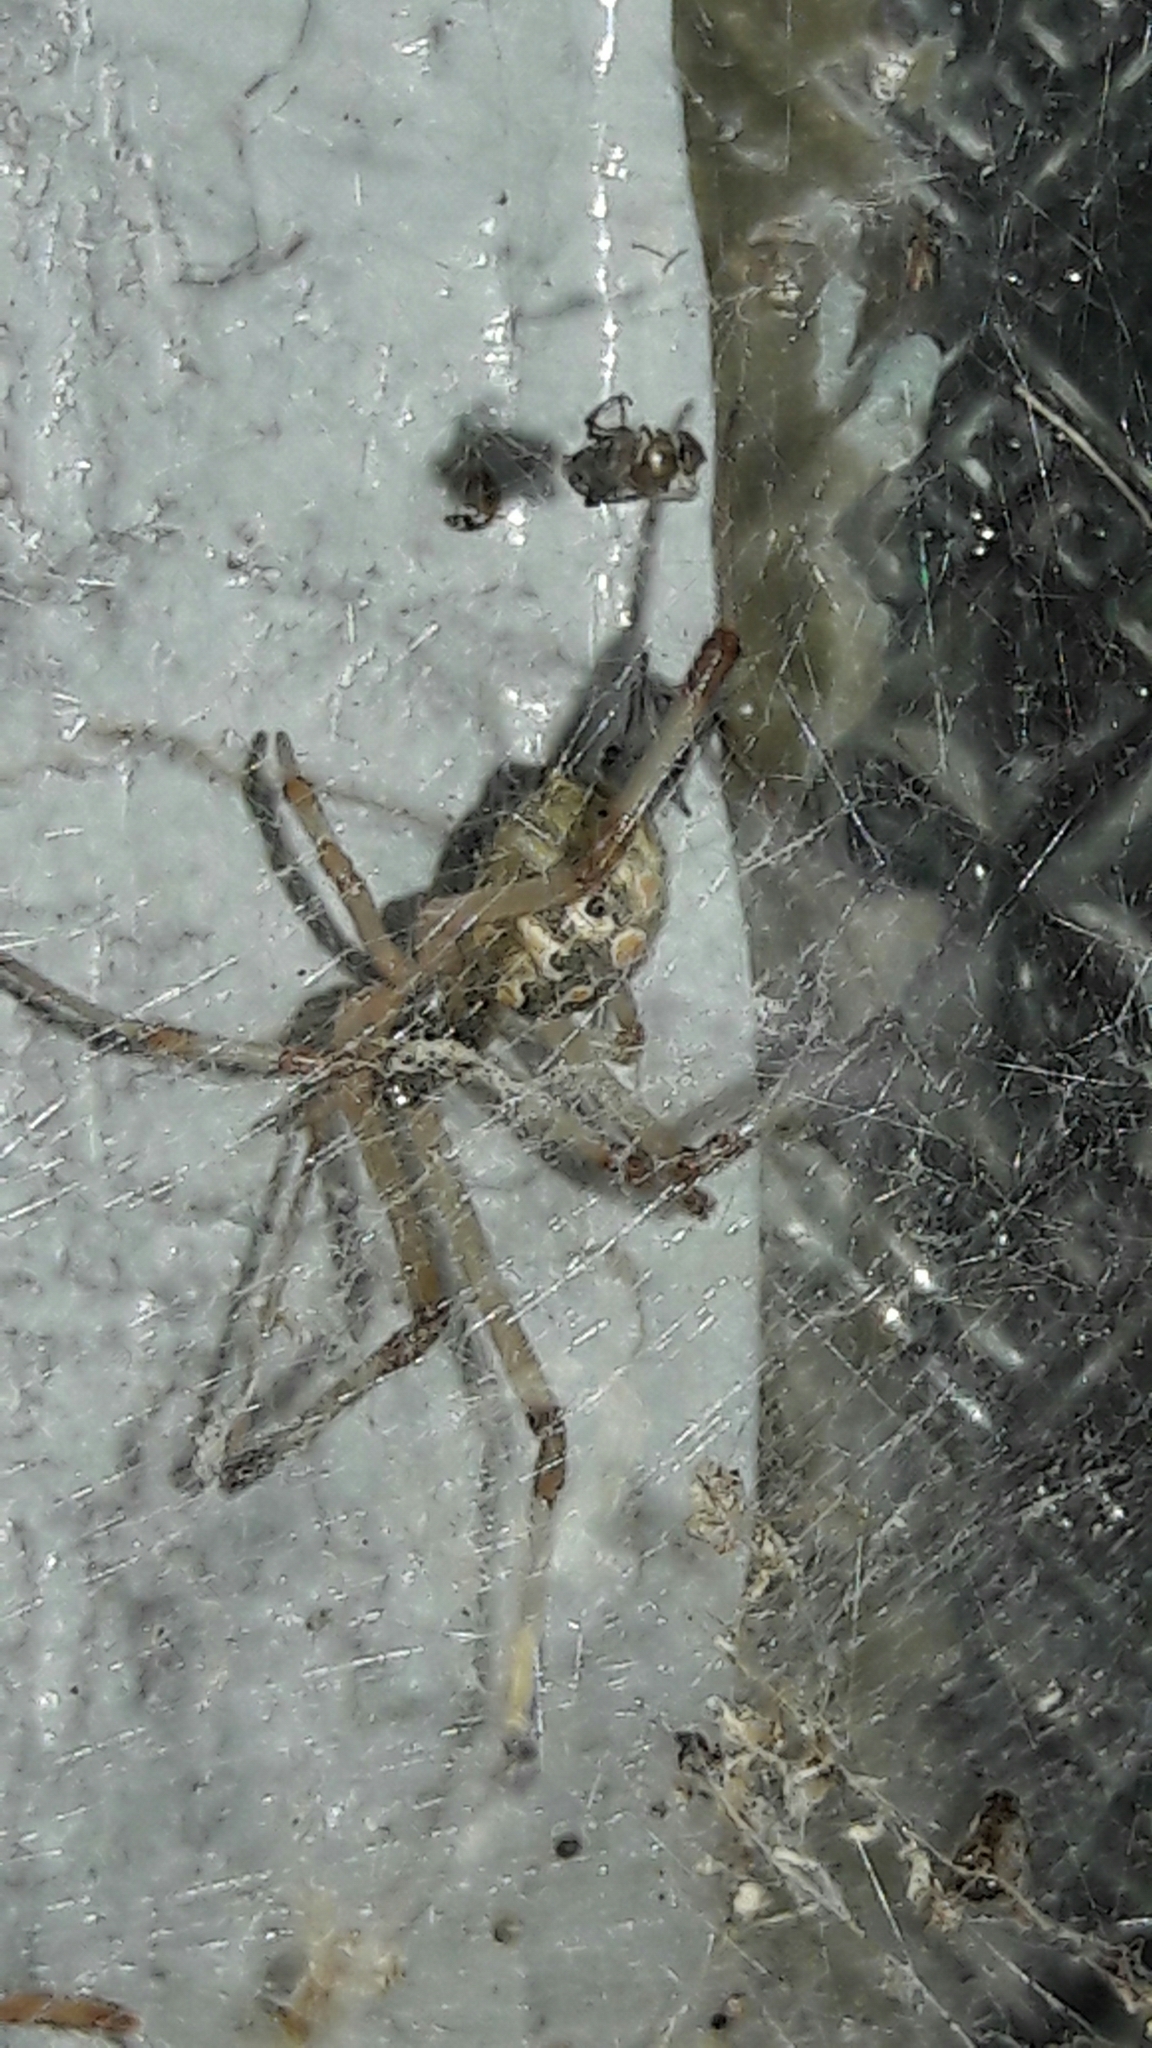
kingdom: Animalia
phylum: Arthropoda
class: Arachnida
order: Araneae
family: Theridiidae
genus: Latrodectus
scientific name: Latrodectus geometricus
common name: Brown widow spider
